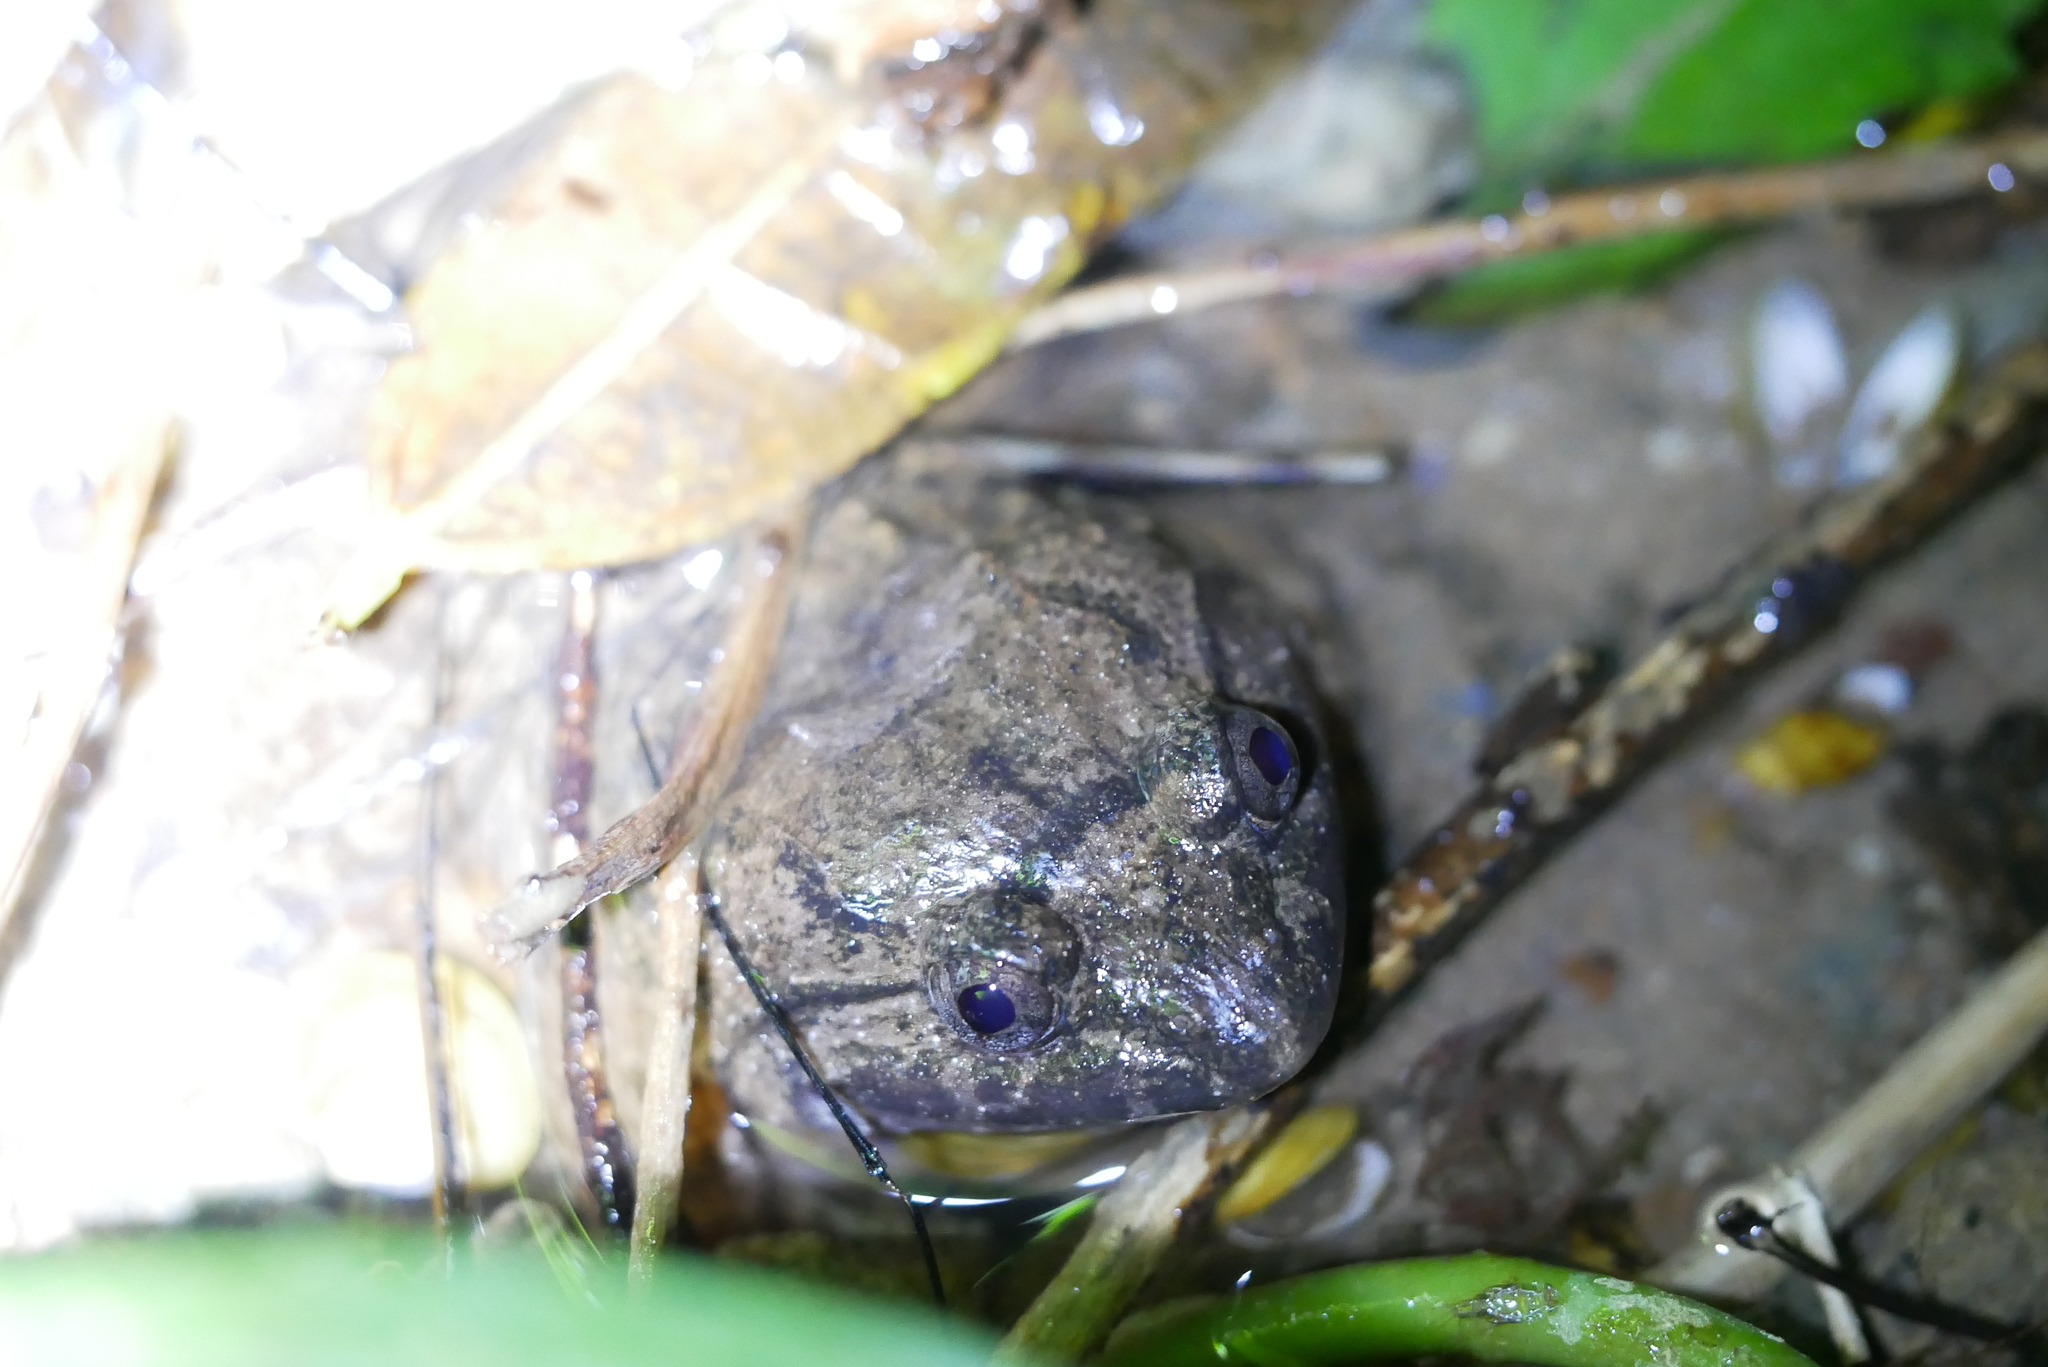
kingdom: Animalia
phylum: Chordata
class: Amphibia
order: Anura
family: Dicroglossidae
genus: Limnonectes
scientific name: Limnonectes fujianensis
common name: Fujian large-headed frog
